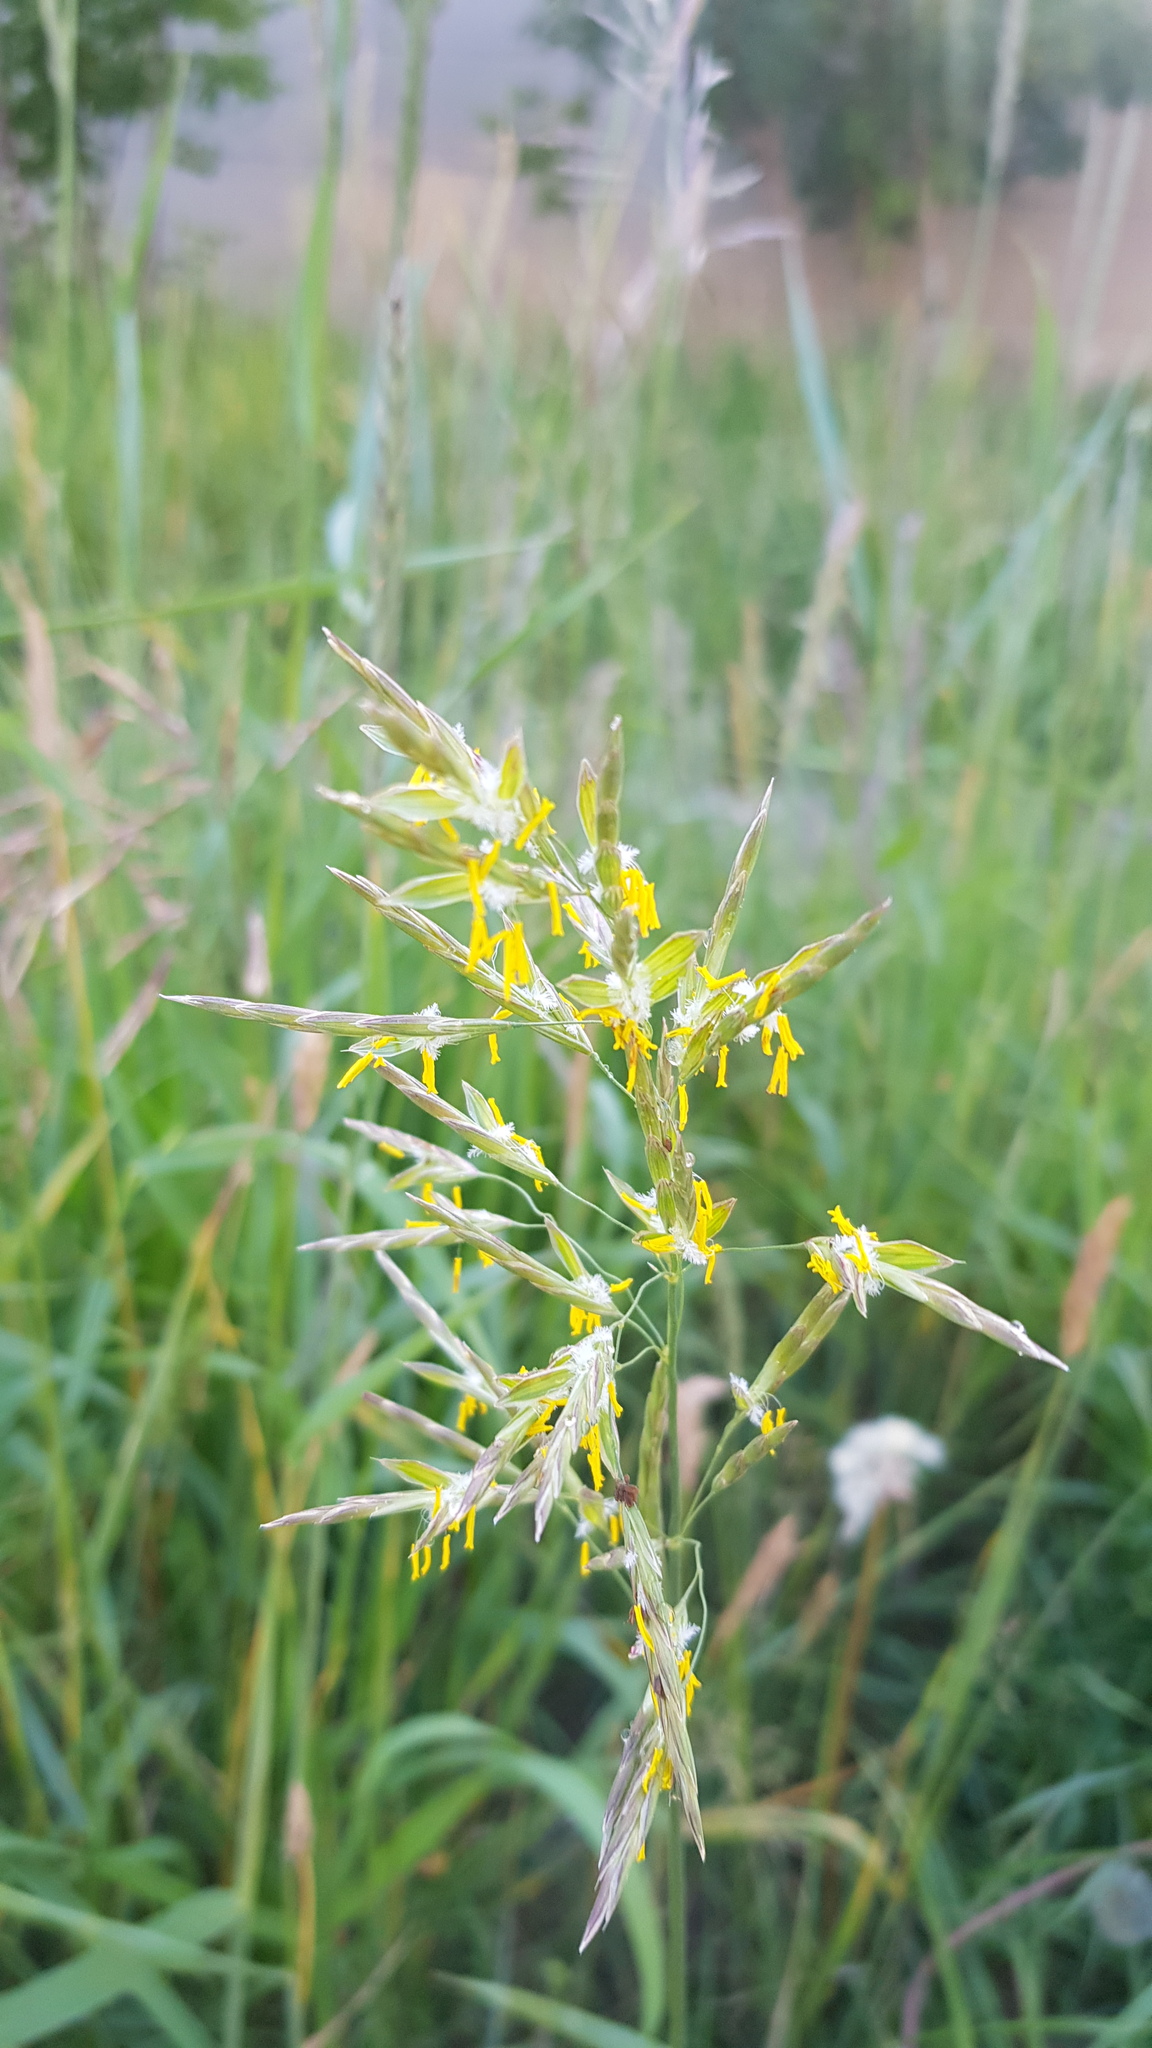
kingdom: Plantae
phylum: Tracheophyta
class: Liliopsida
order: Poales
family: Poaceae
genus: Bromus
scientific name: Bromus inermis
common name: Smooth brome
